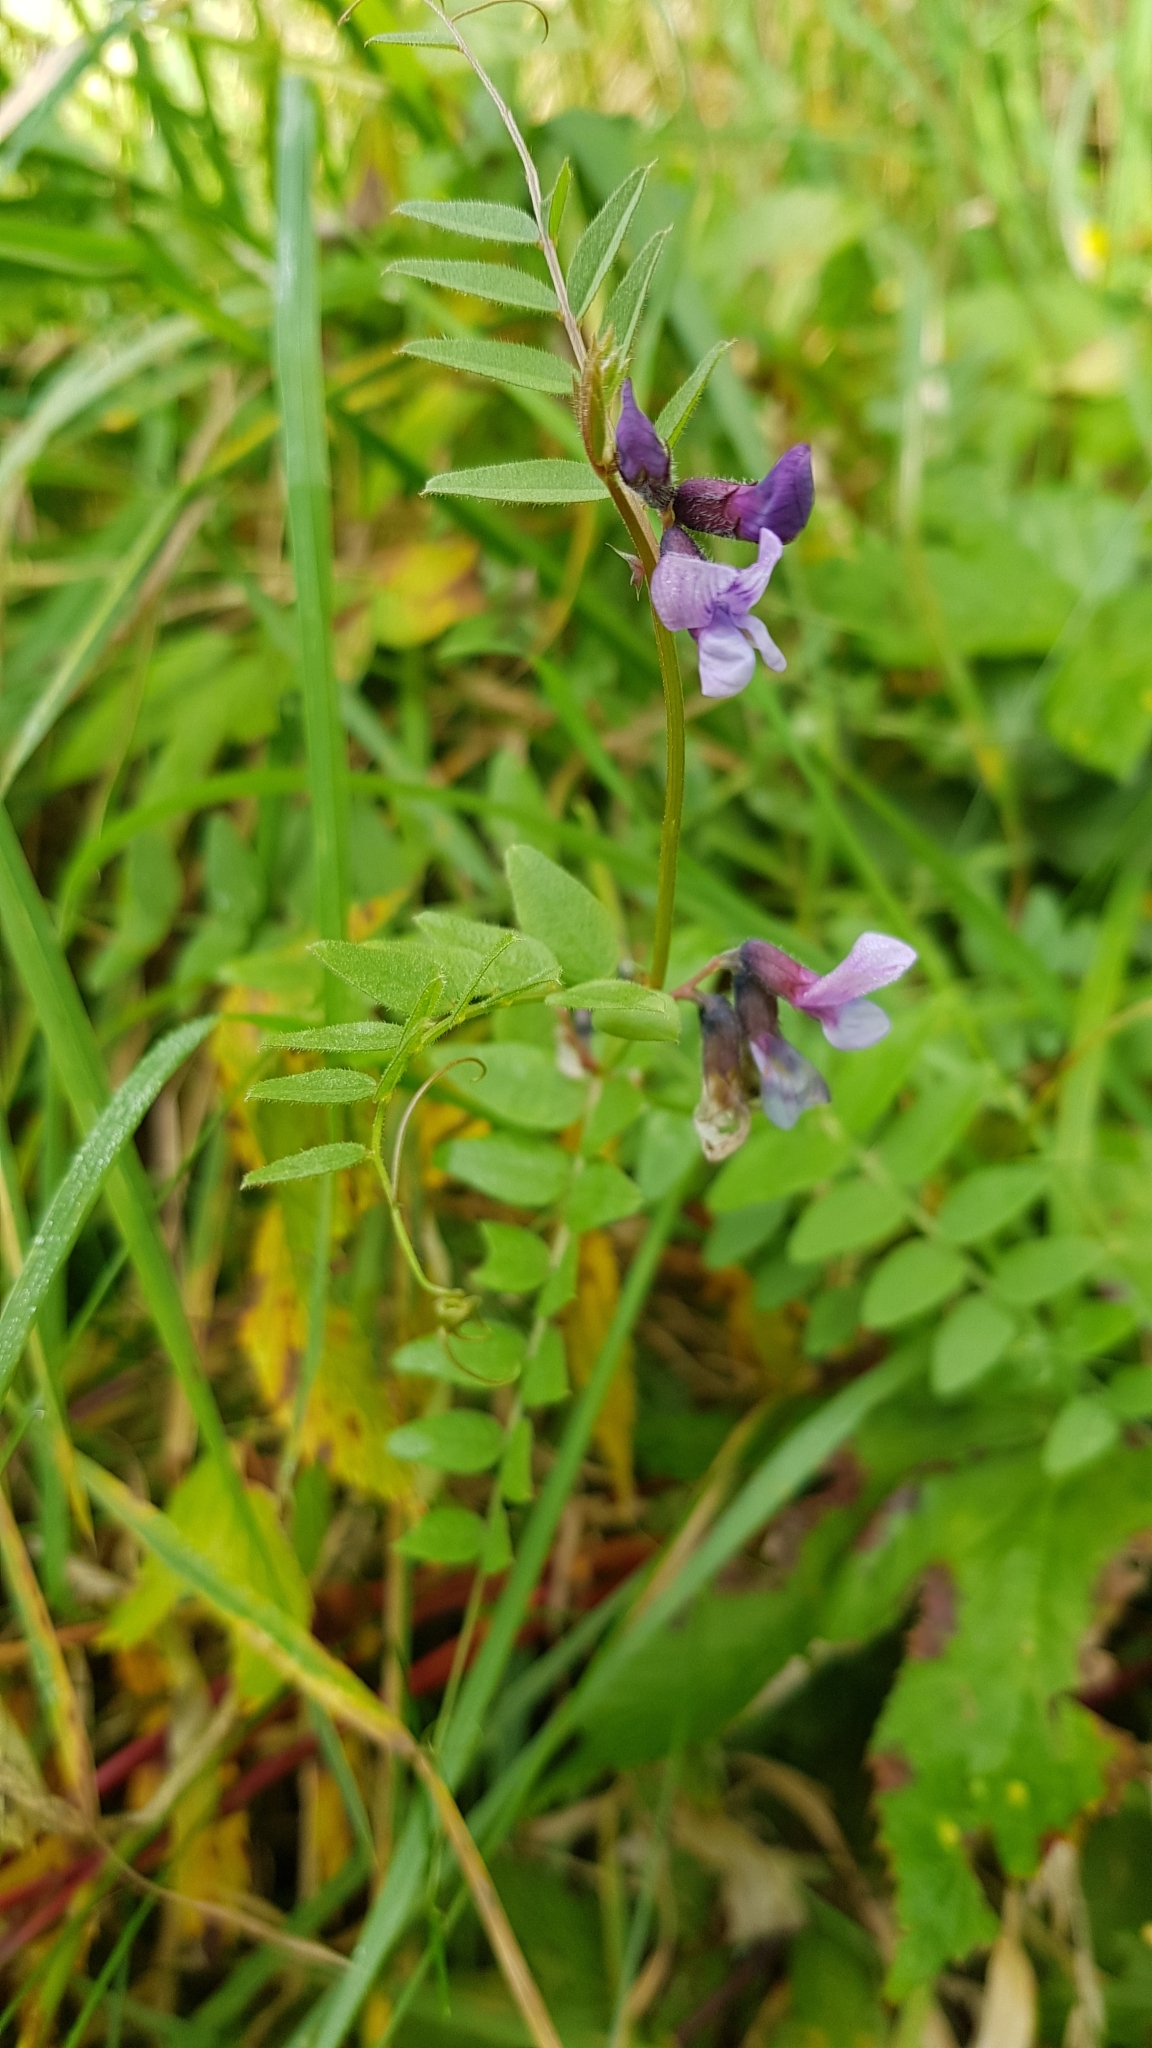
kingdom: Plantae
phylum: Tracheophyta
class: Magnoliopsida
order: Fabales
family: Fabaceae
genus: Vicia
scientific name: Vicia sepium
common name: Bush vetch
